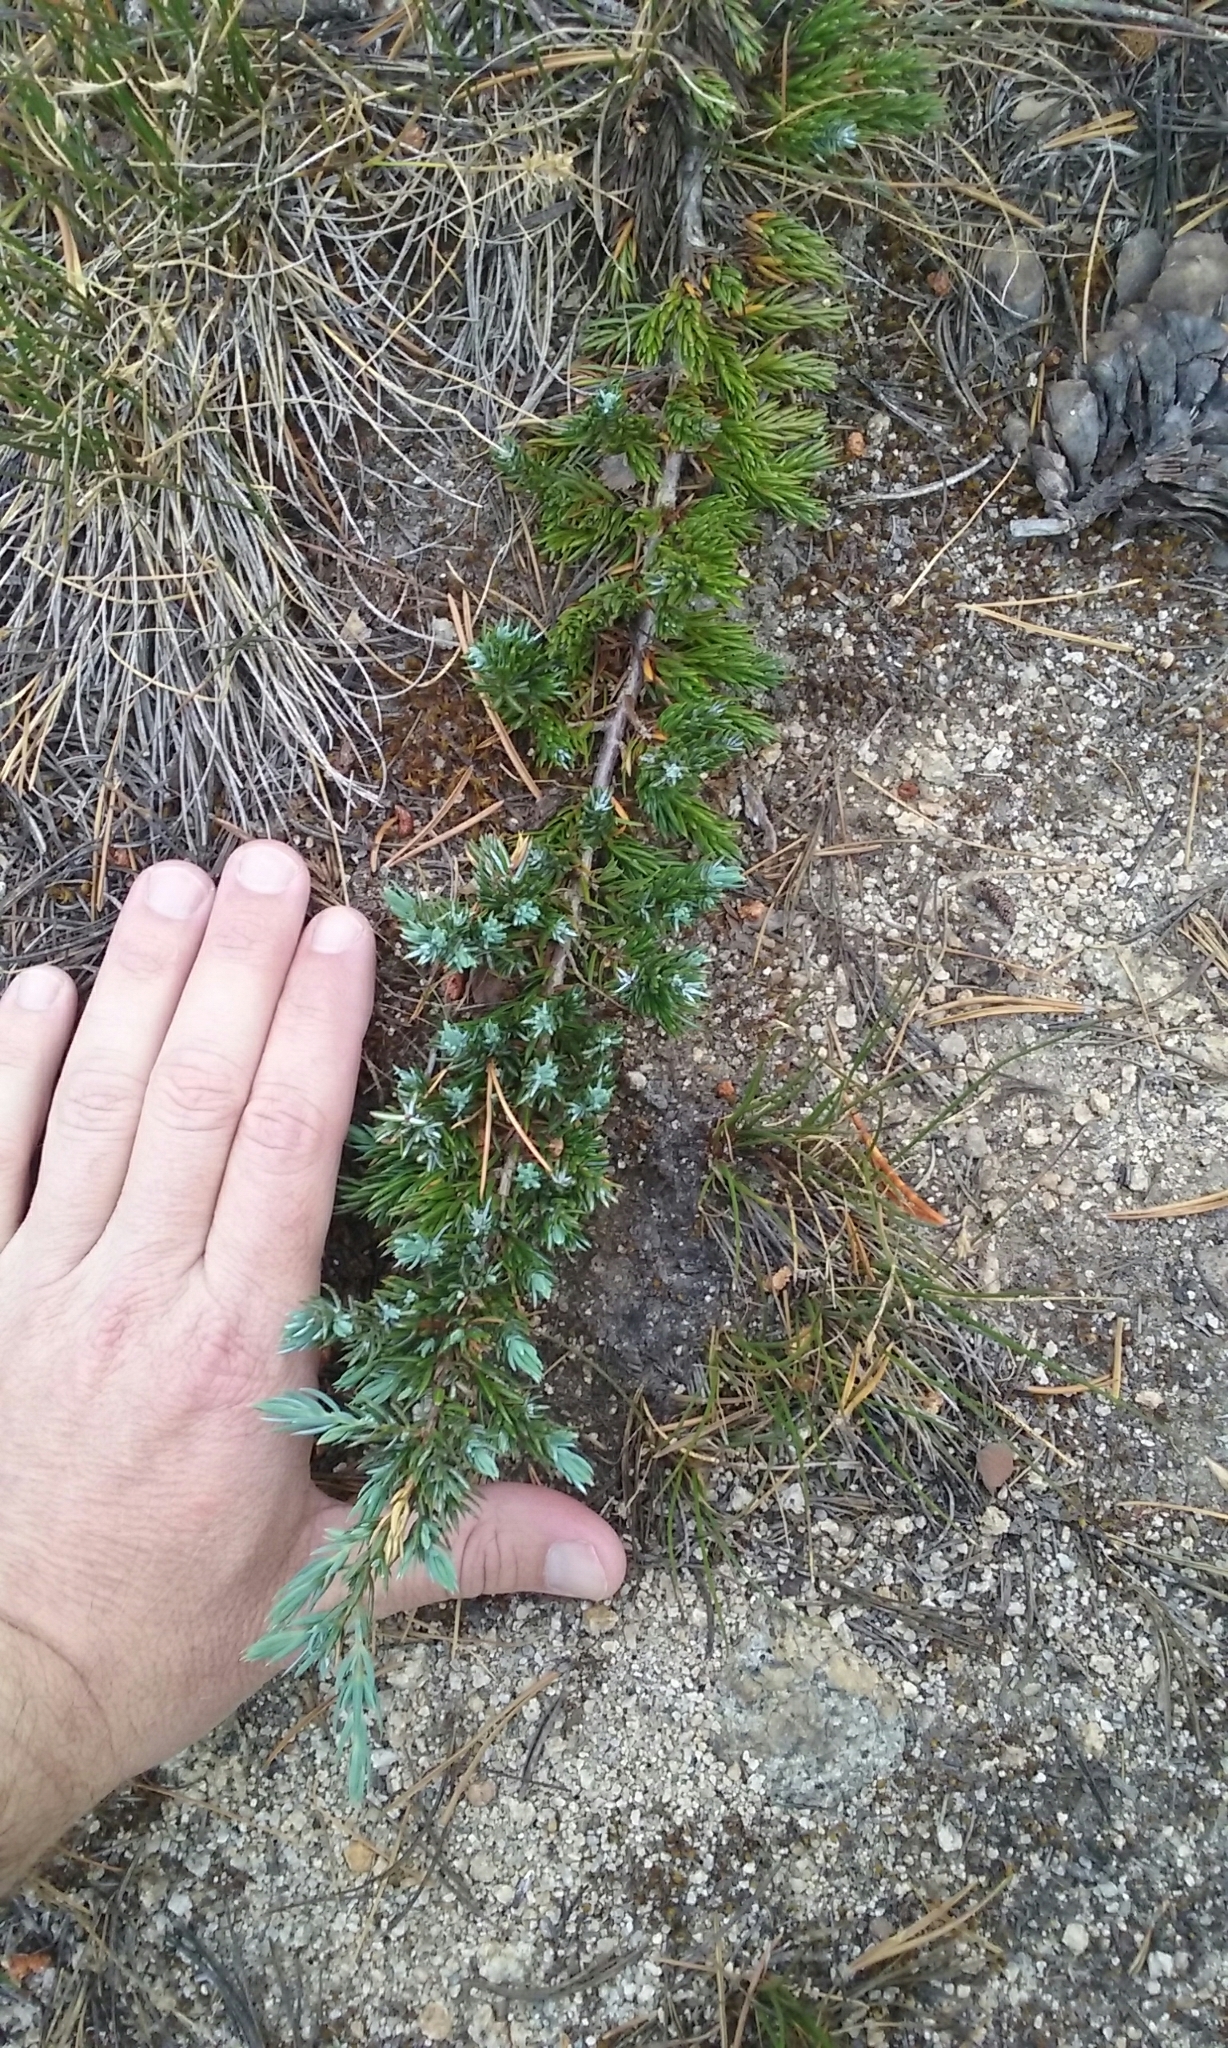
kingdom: Plantae
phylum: Tracheophyta
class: Pinopsida
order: Pinales
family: Cupressaceae
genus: Juniperus
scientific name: Juniperus communis
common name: Common juniper
